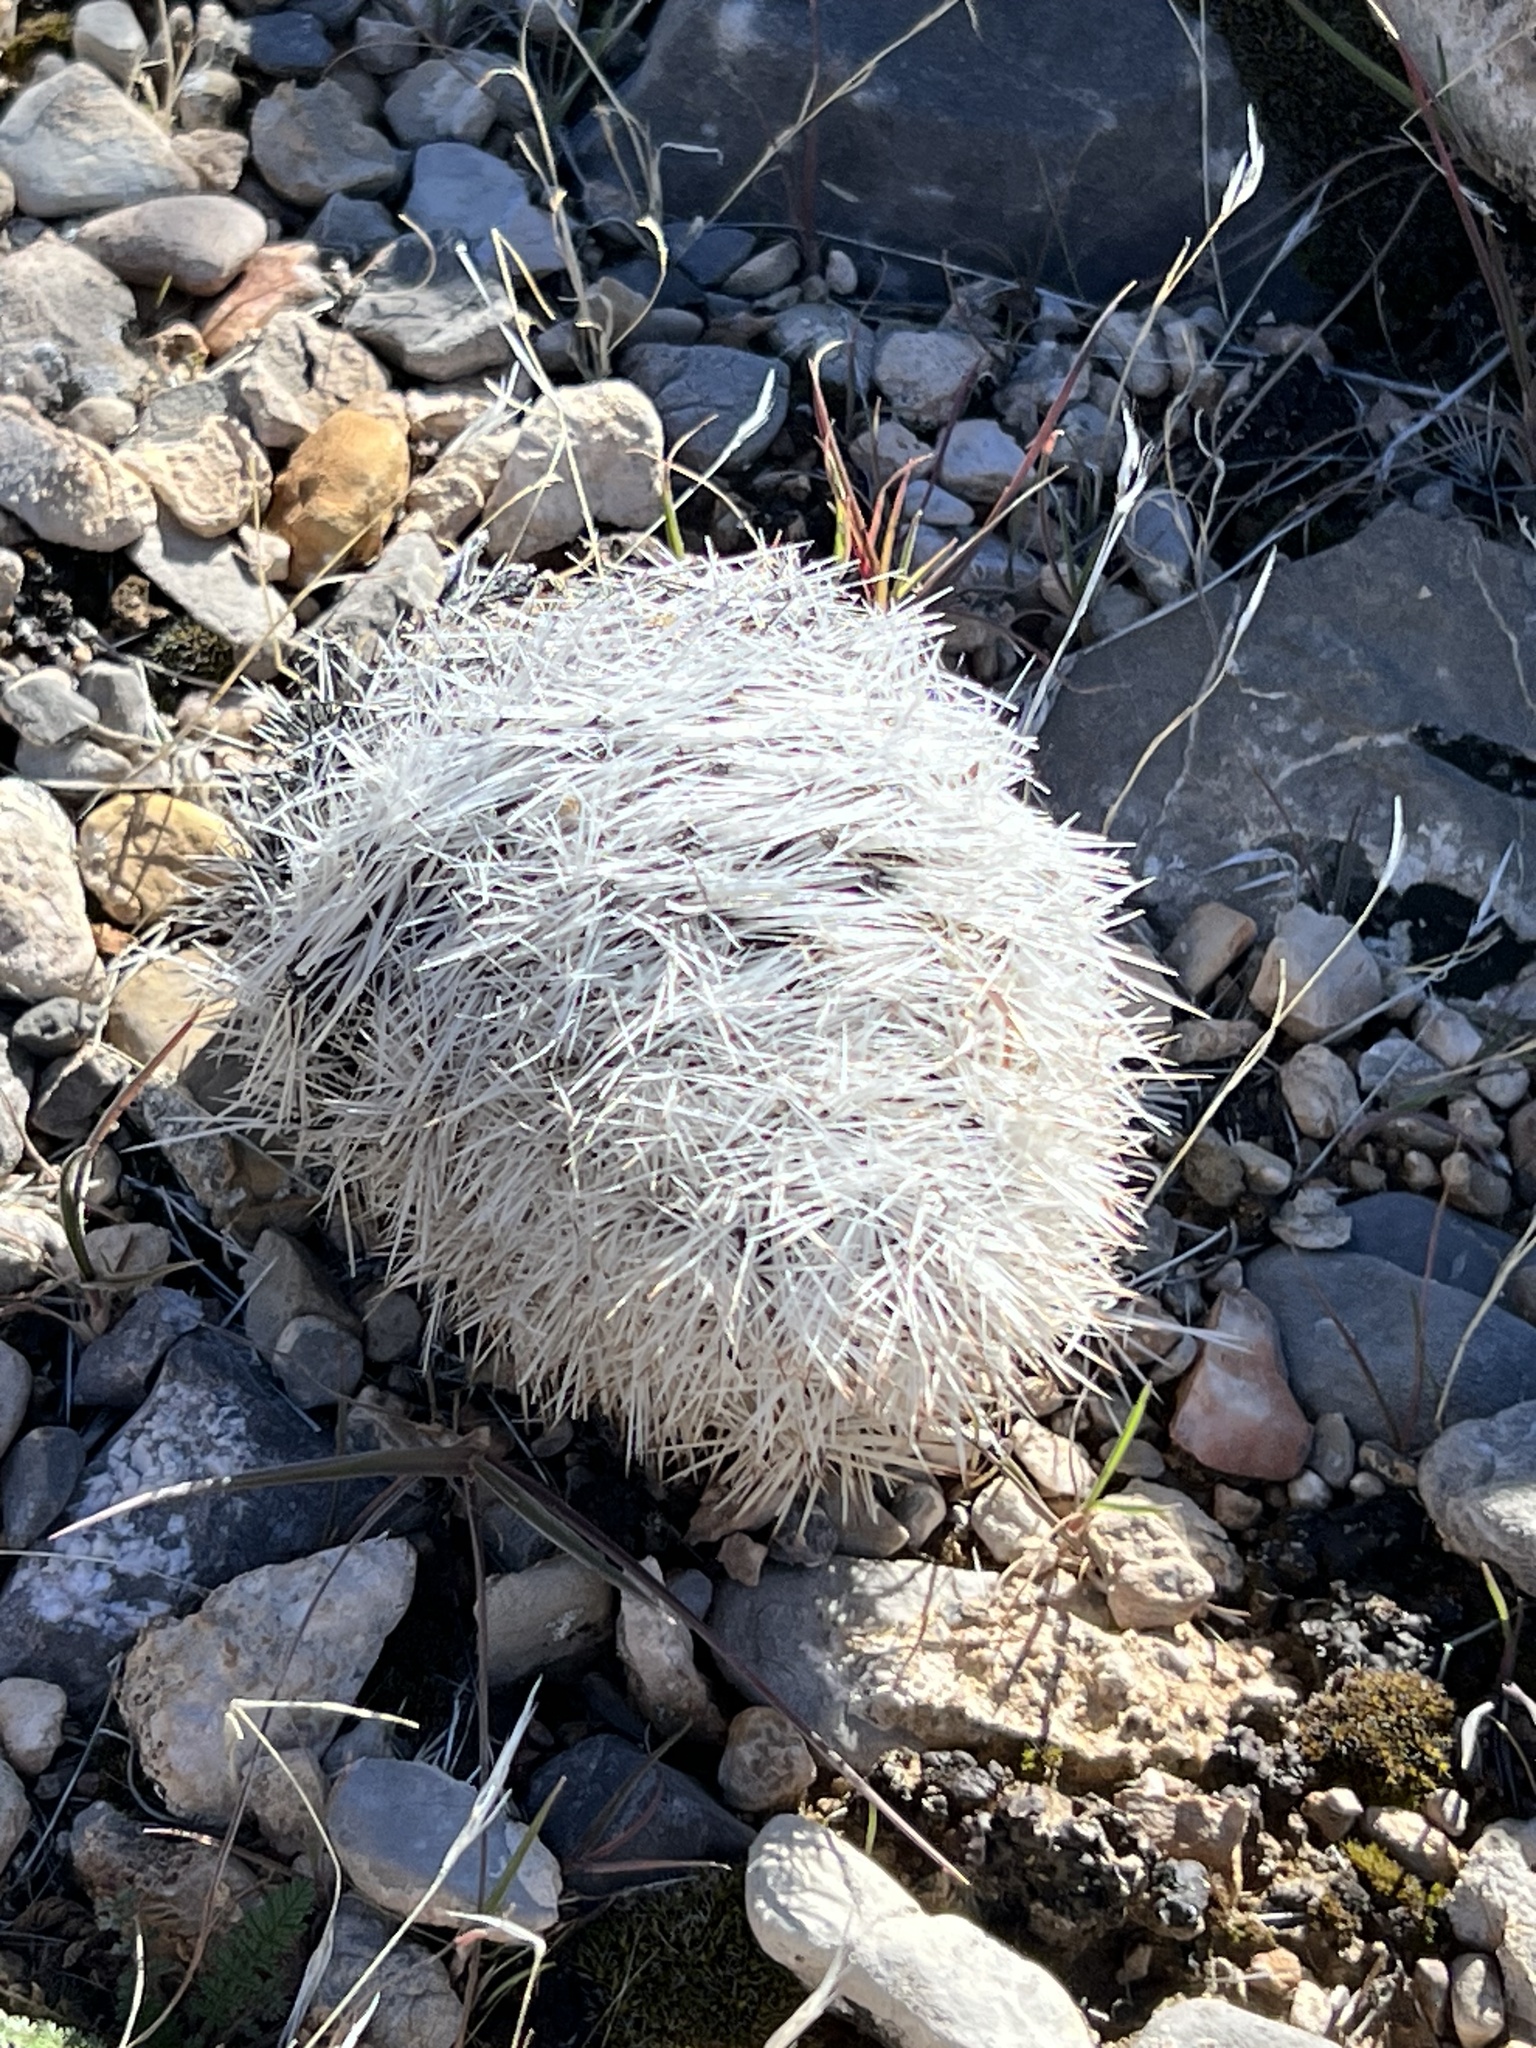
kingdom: Plantae
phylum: Tracheophyta
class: Magnoliopsida
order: Caryophyllales
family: Cactaceae
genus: Pelecyphora
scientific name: Pelecyphora dasyacantha
